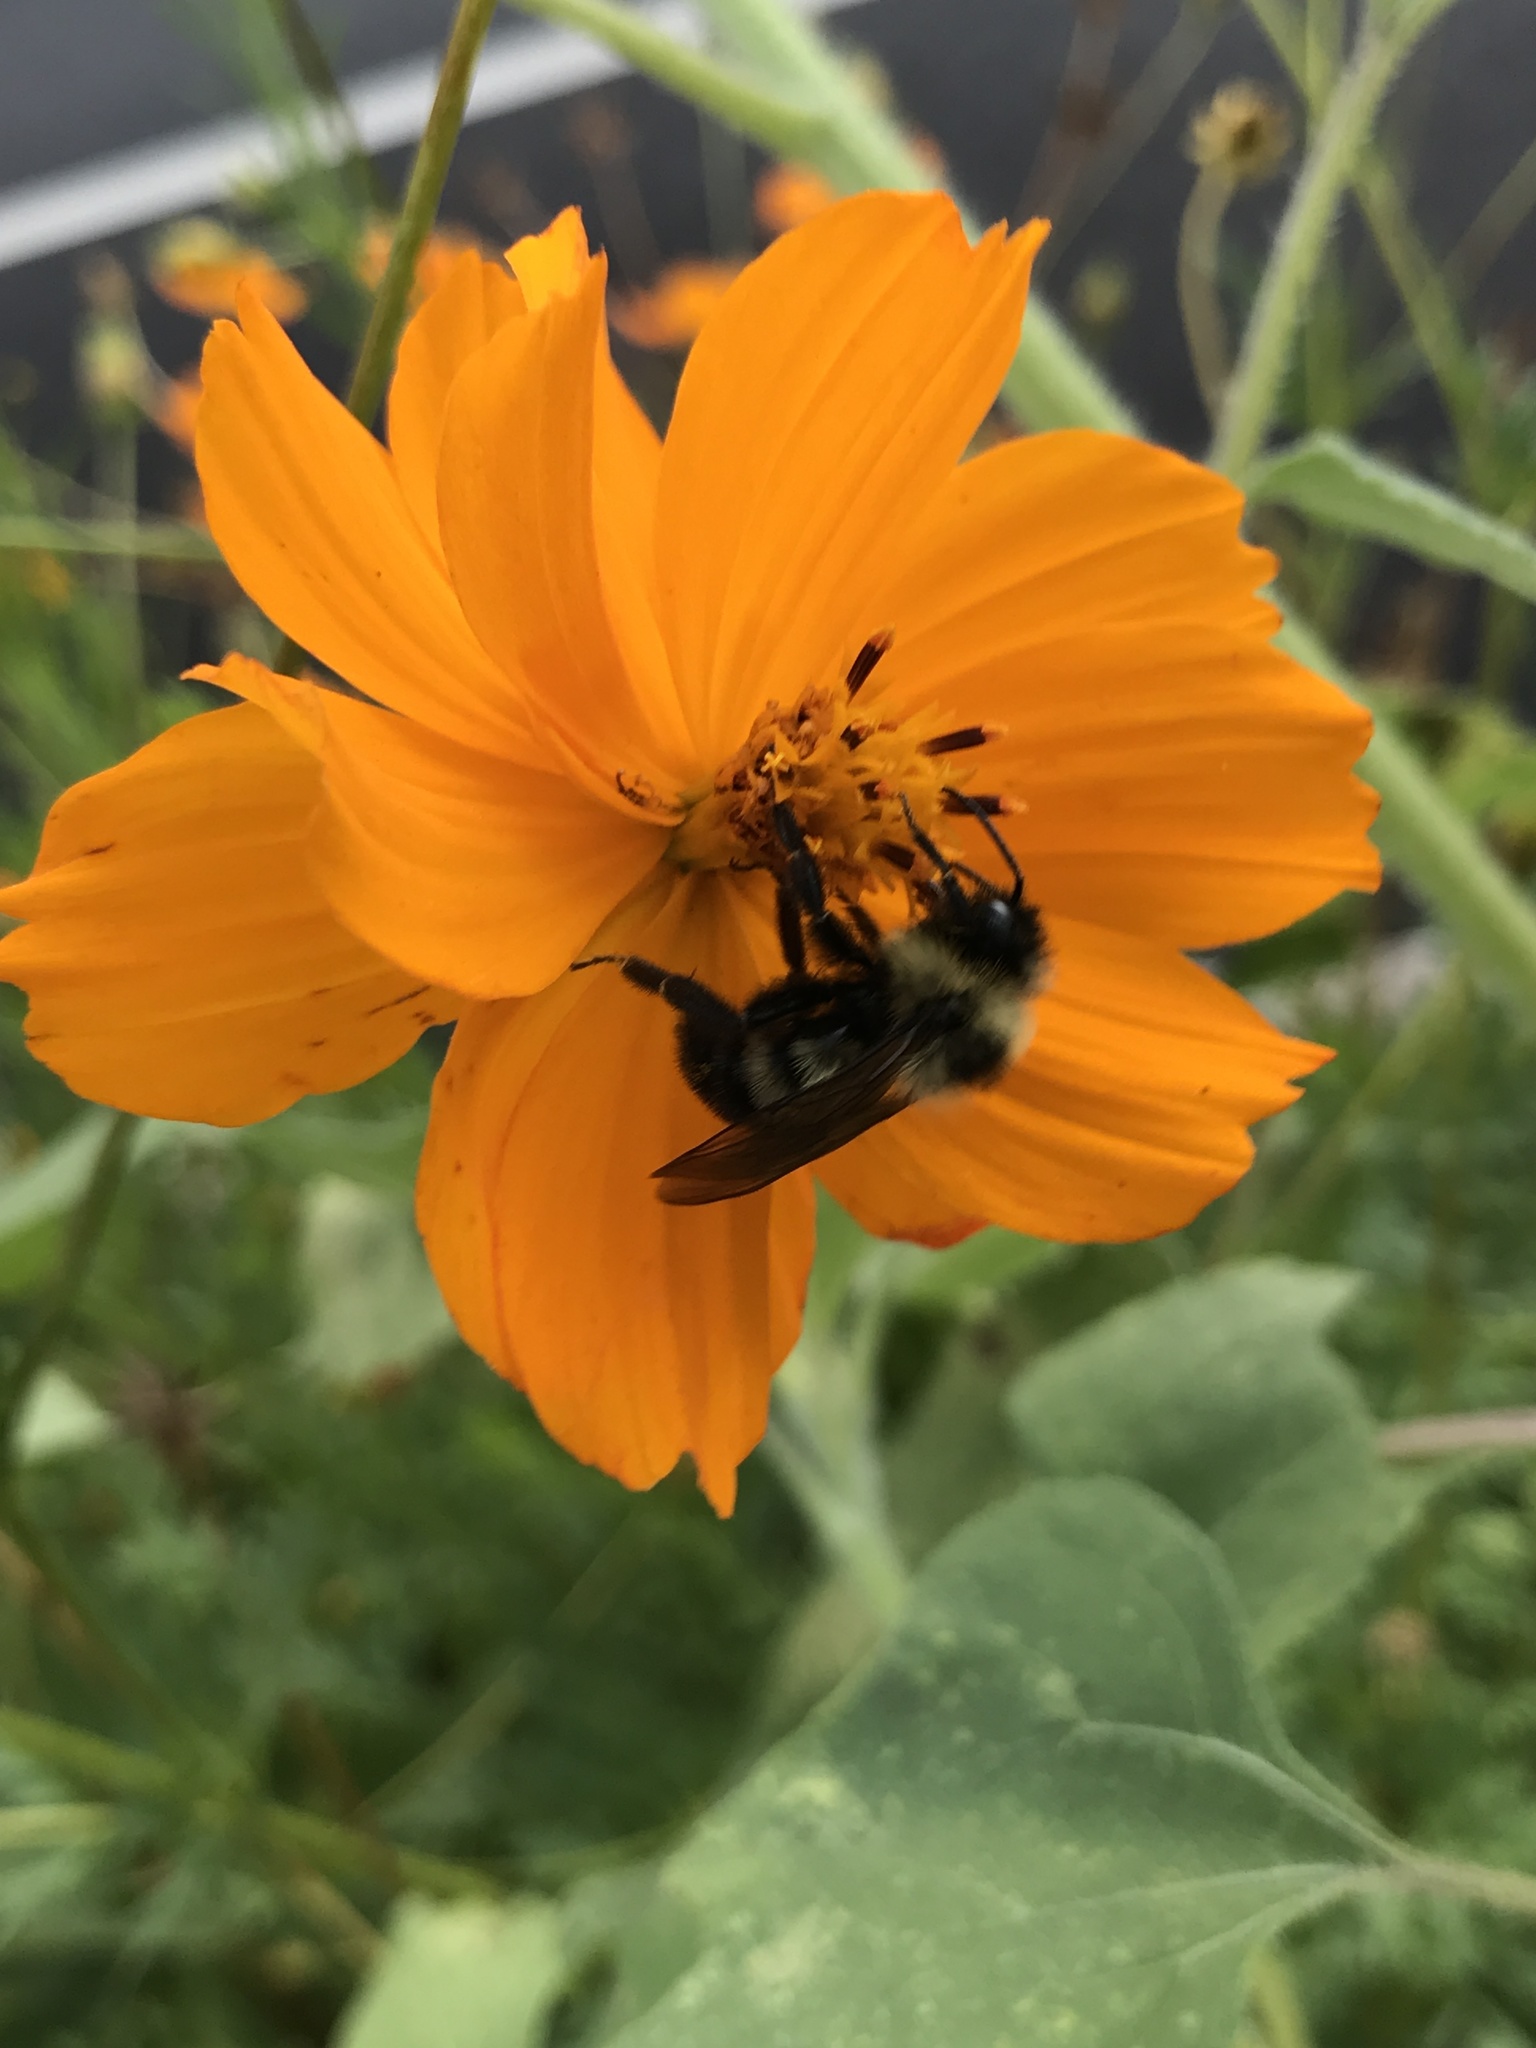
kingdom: Animalia
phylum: Arthropoda
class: Insecta
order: Hymenoptera
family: Apidae
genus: Bombus
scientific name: Bombus citrinus
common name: Lemon cuckoo bumble bee
